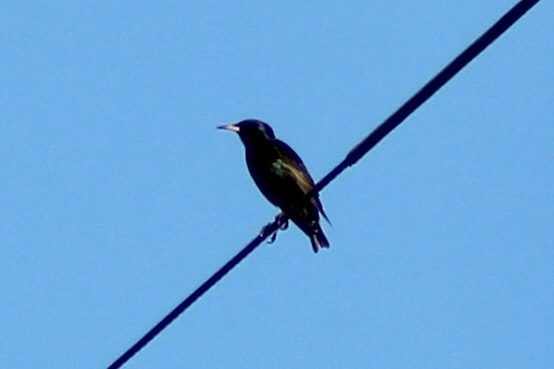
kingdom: Animalia
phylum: Chordata
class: Aves
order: Passeriformes
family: Sturnidae
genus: Sturnus
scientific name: Sturnus vulgaris
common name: Common starling
